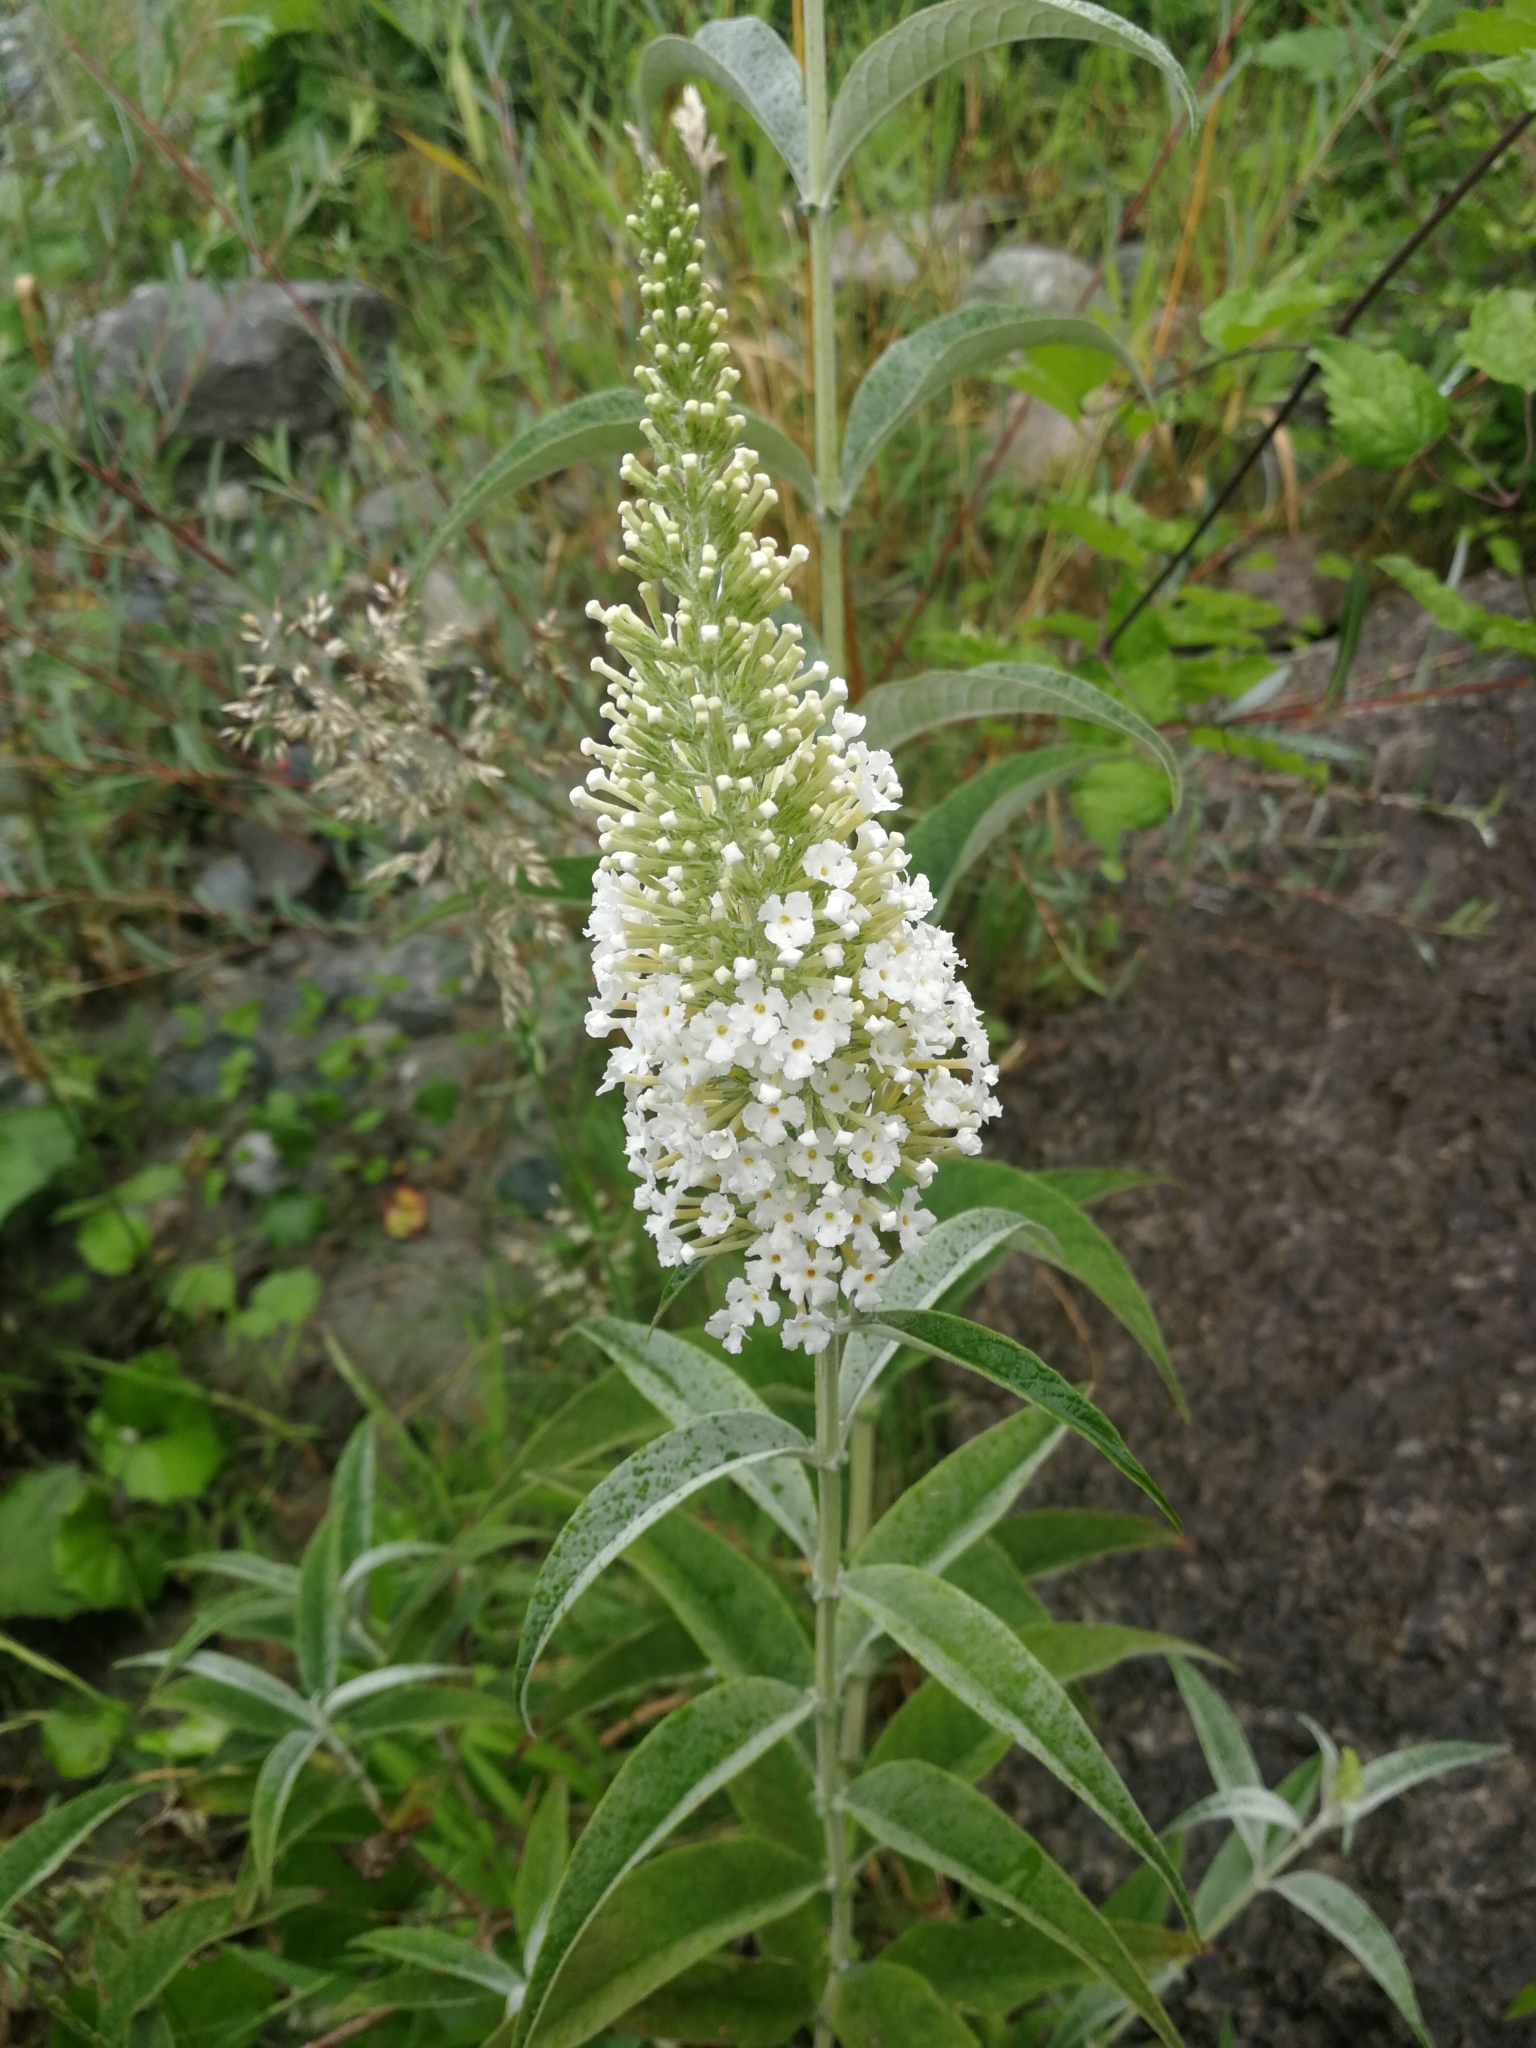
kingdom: Plantae
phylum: Tracheophyta
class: Magnoliopsida
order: Lamiales
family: Scrophulariaceae
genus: Buddleja
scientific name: Buddleja davidii
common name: Butterfly-bush
